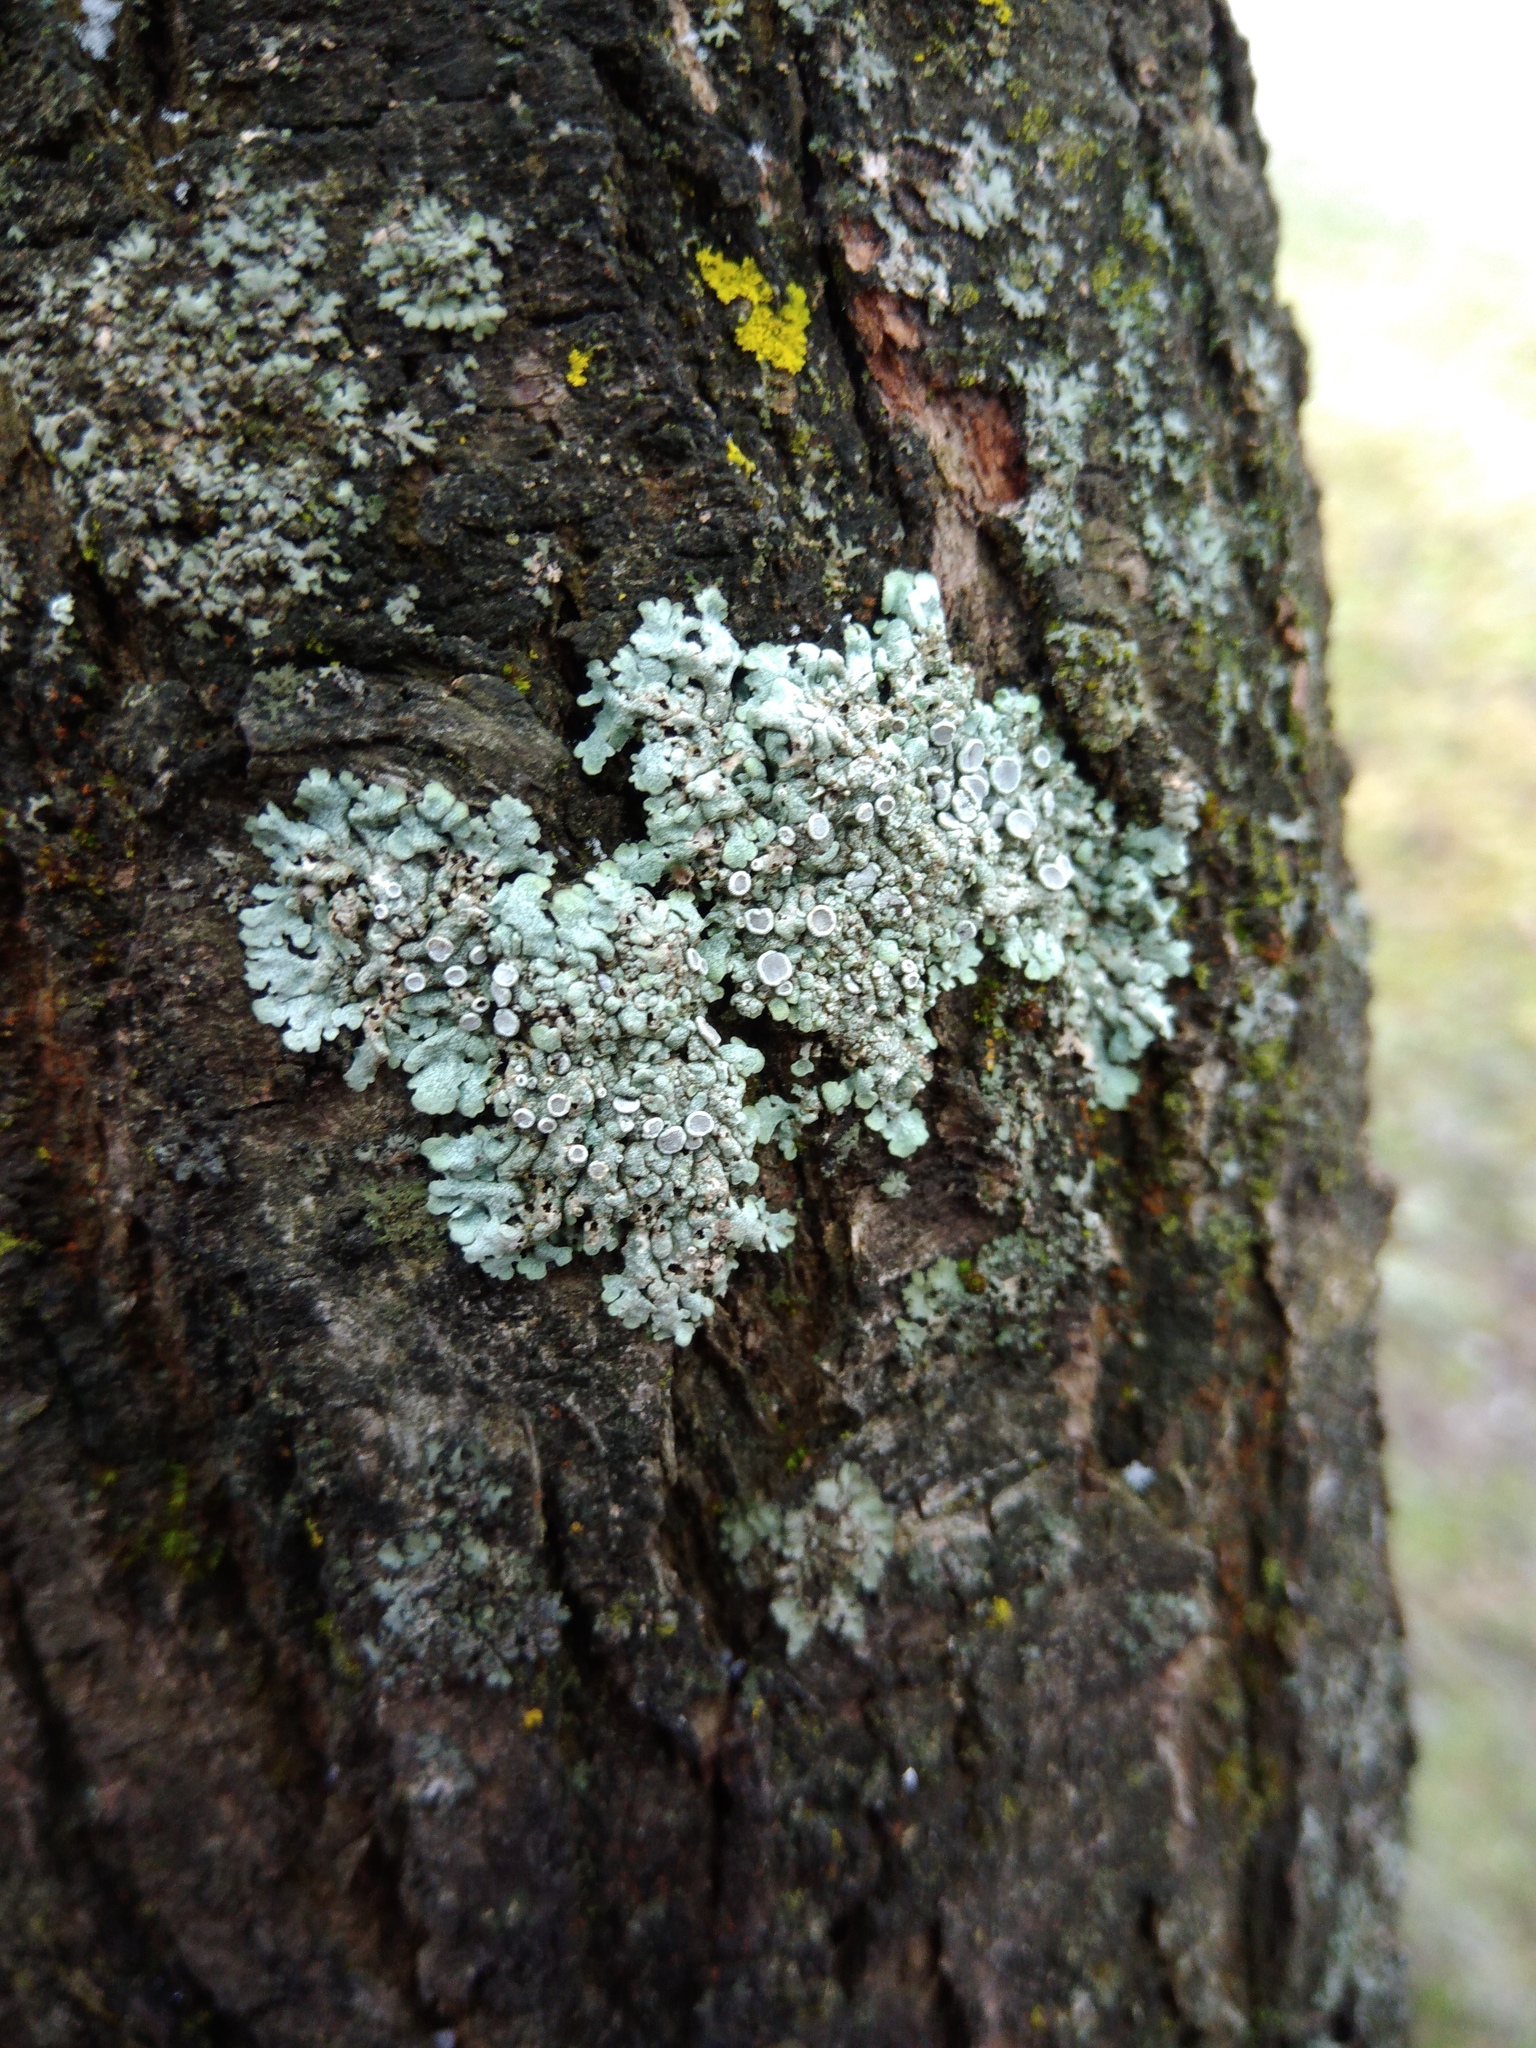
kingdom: Fungi
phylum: Ascomycota
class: Lecanoromycetes
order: Caliciales
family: Physciaceae
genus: Physcia
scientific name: Physcia aipolia
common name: Hoary rosette lichen
